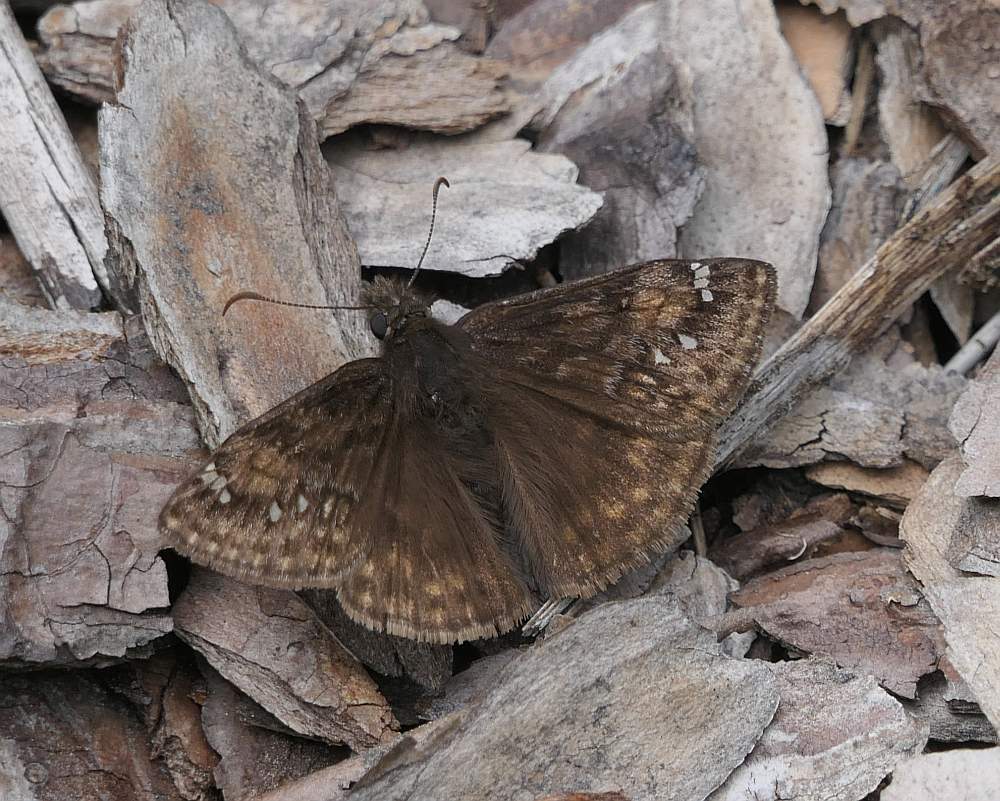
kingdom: Animalia
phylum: Arthropoda
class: Insecta
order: Lepidoptera
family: Hesperiidae
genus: Erynnis
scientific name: Erynnis juvenalis
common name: Juvenal's duskywing
